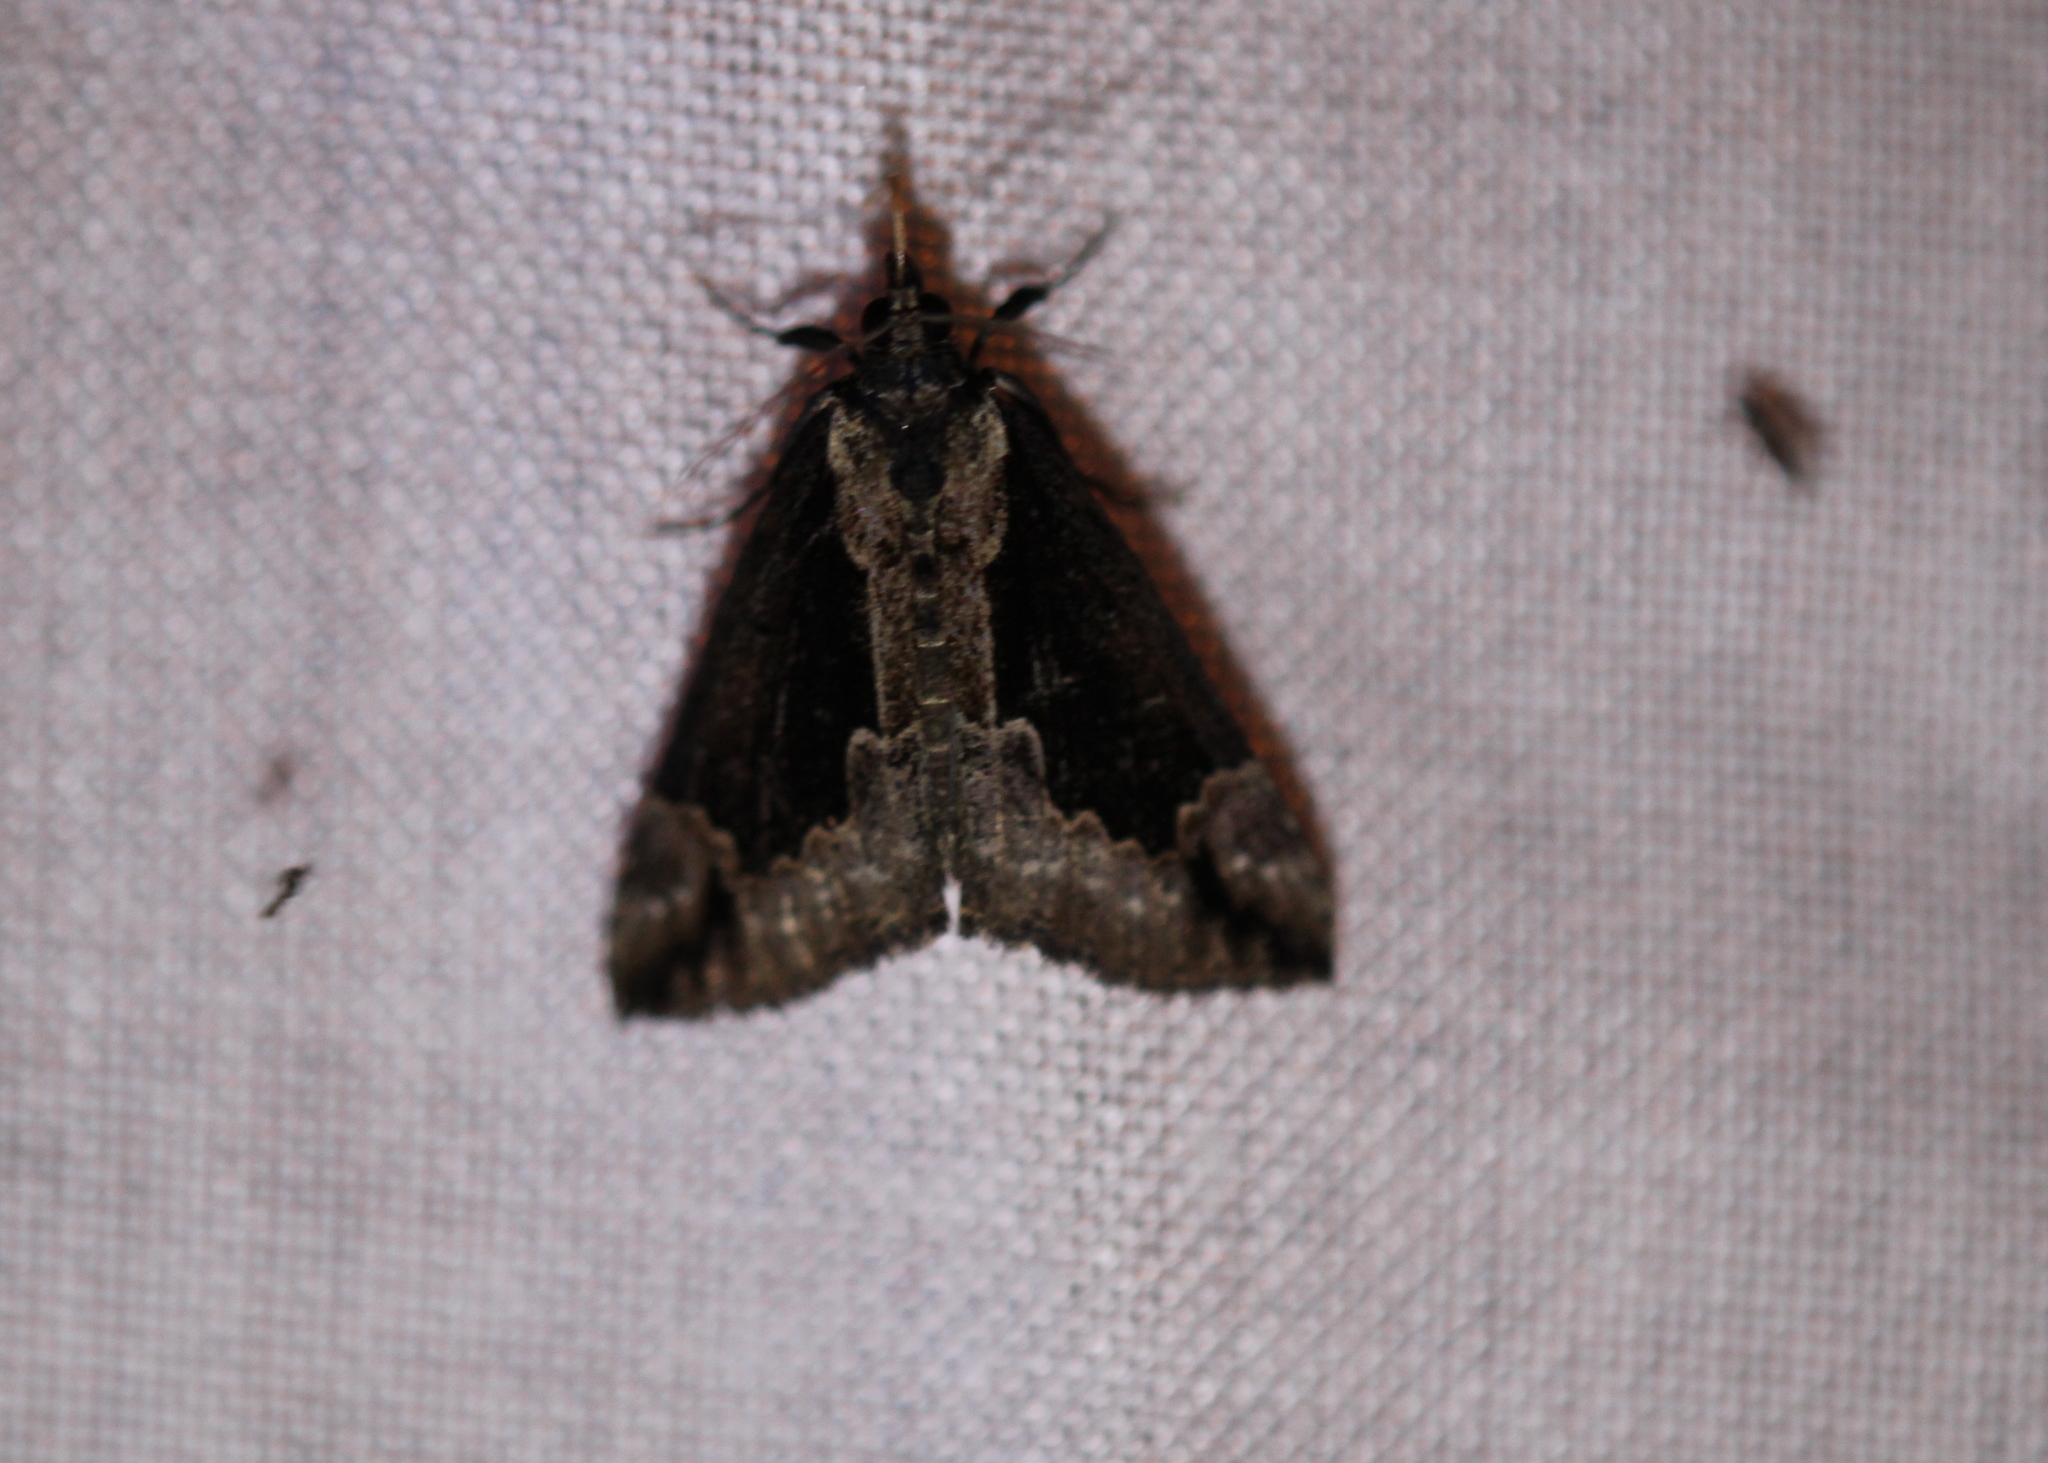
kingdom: Animalia
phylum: Arthropoda
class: Insecta
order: Lepidoptera
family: Erebidae
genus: Hypena
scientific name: Hypena baltimoralis
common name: Baltimore snout
